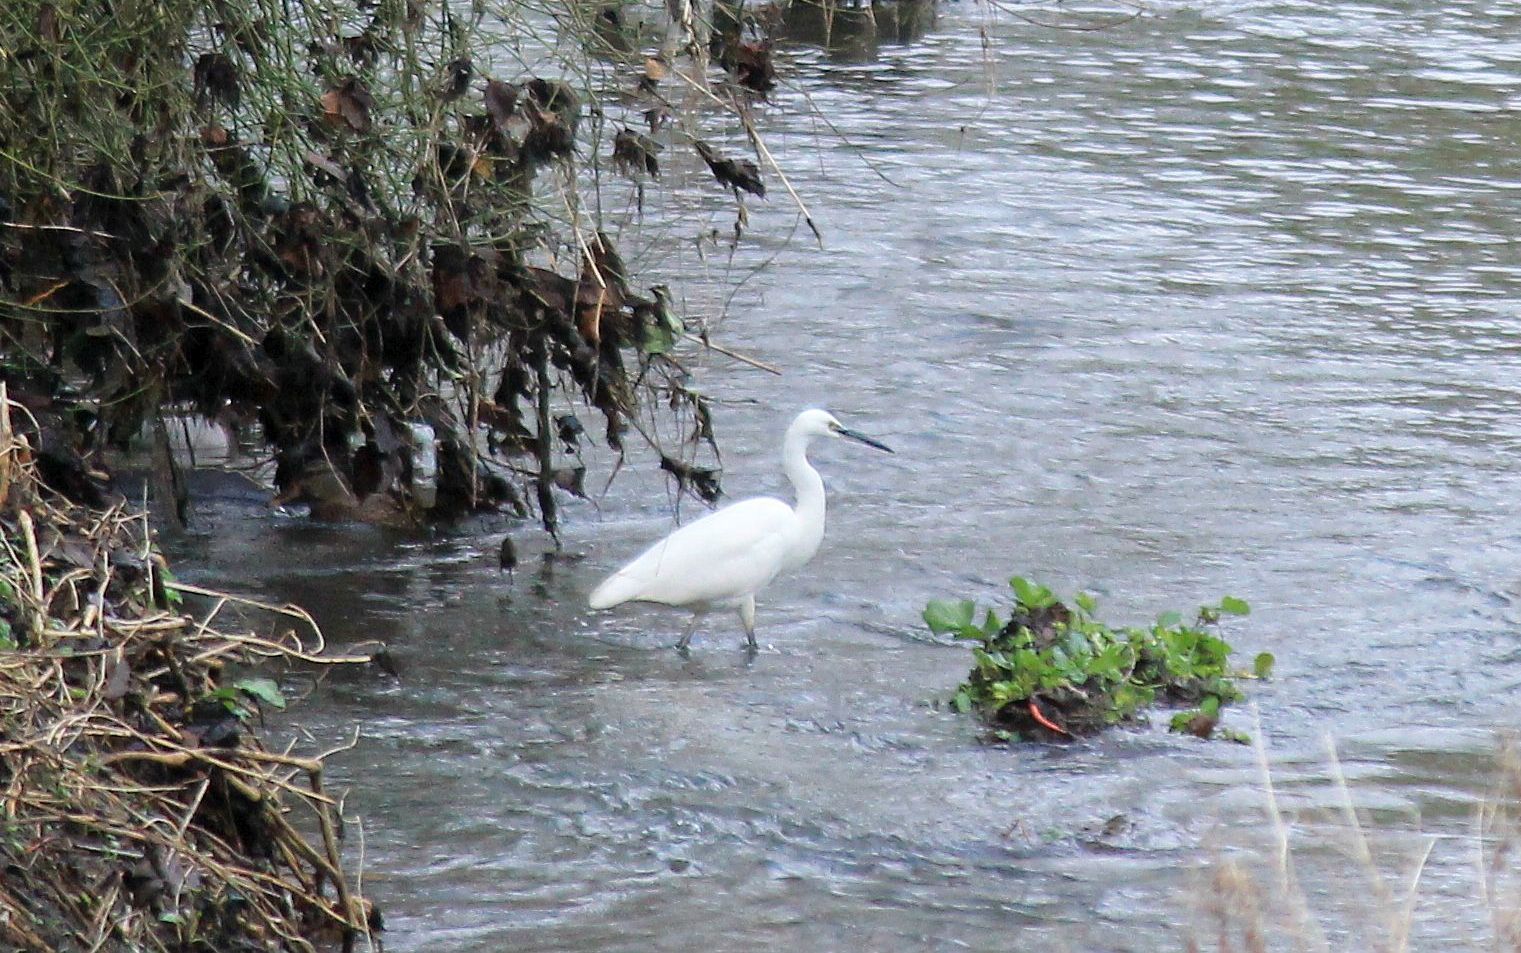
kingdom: Animalia
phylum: Chordata
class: Aves
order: Pelecaniformes
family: Ardeidae
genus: Egretta
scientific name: Egretta garzetta
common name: Little egret
